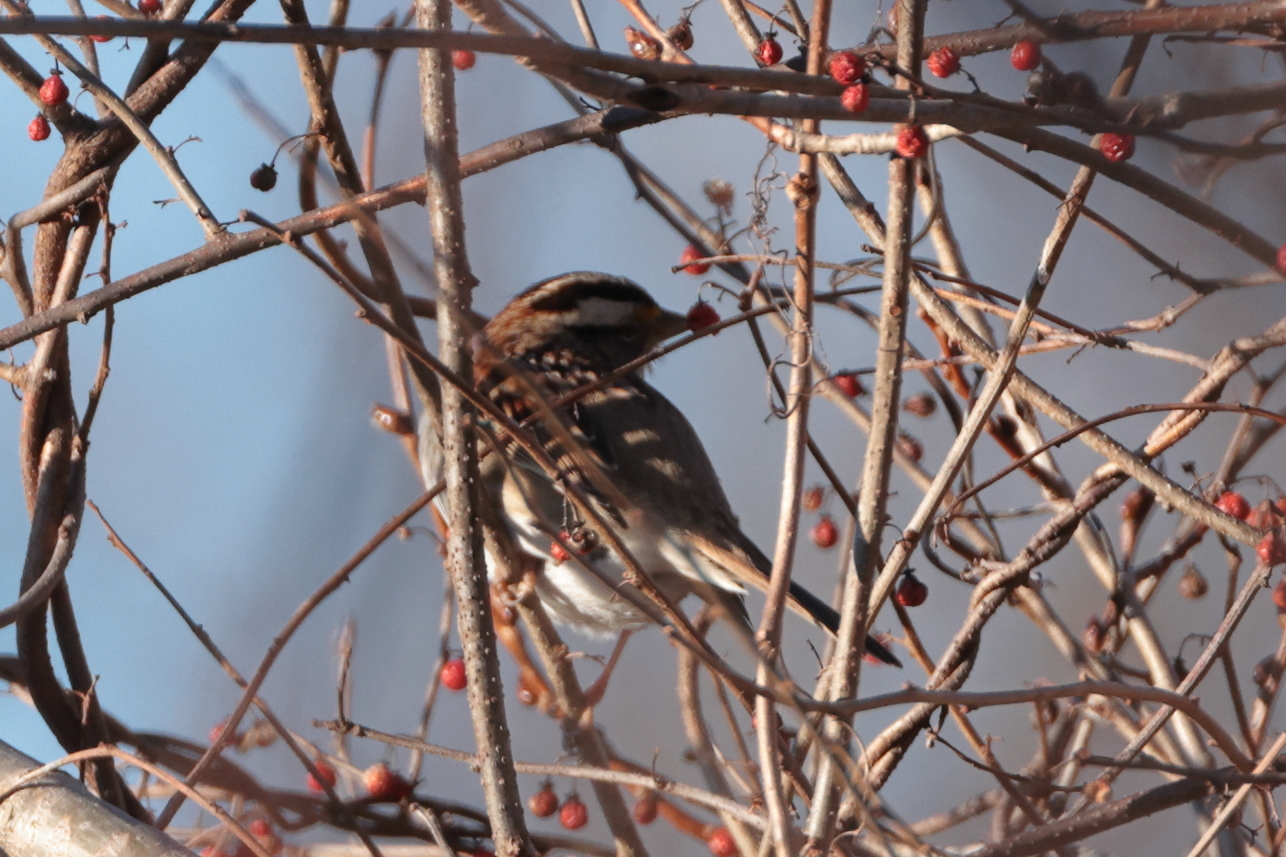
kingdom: Animalia
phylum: Chordata
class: Aves
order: Passeriformes
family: Passerellidae
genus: Zonotrichia
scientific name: Zonotrichia albicollis
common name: White-throated sparrow
